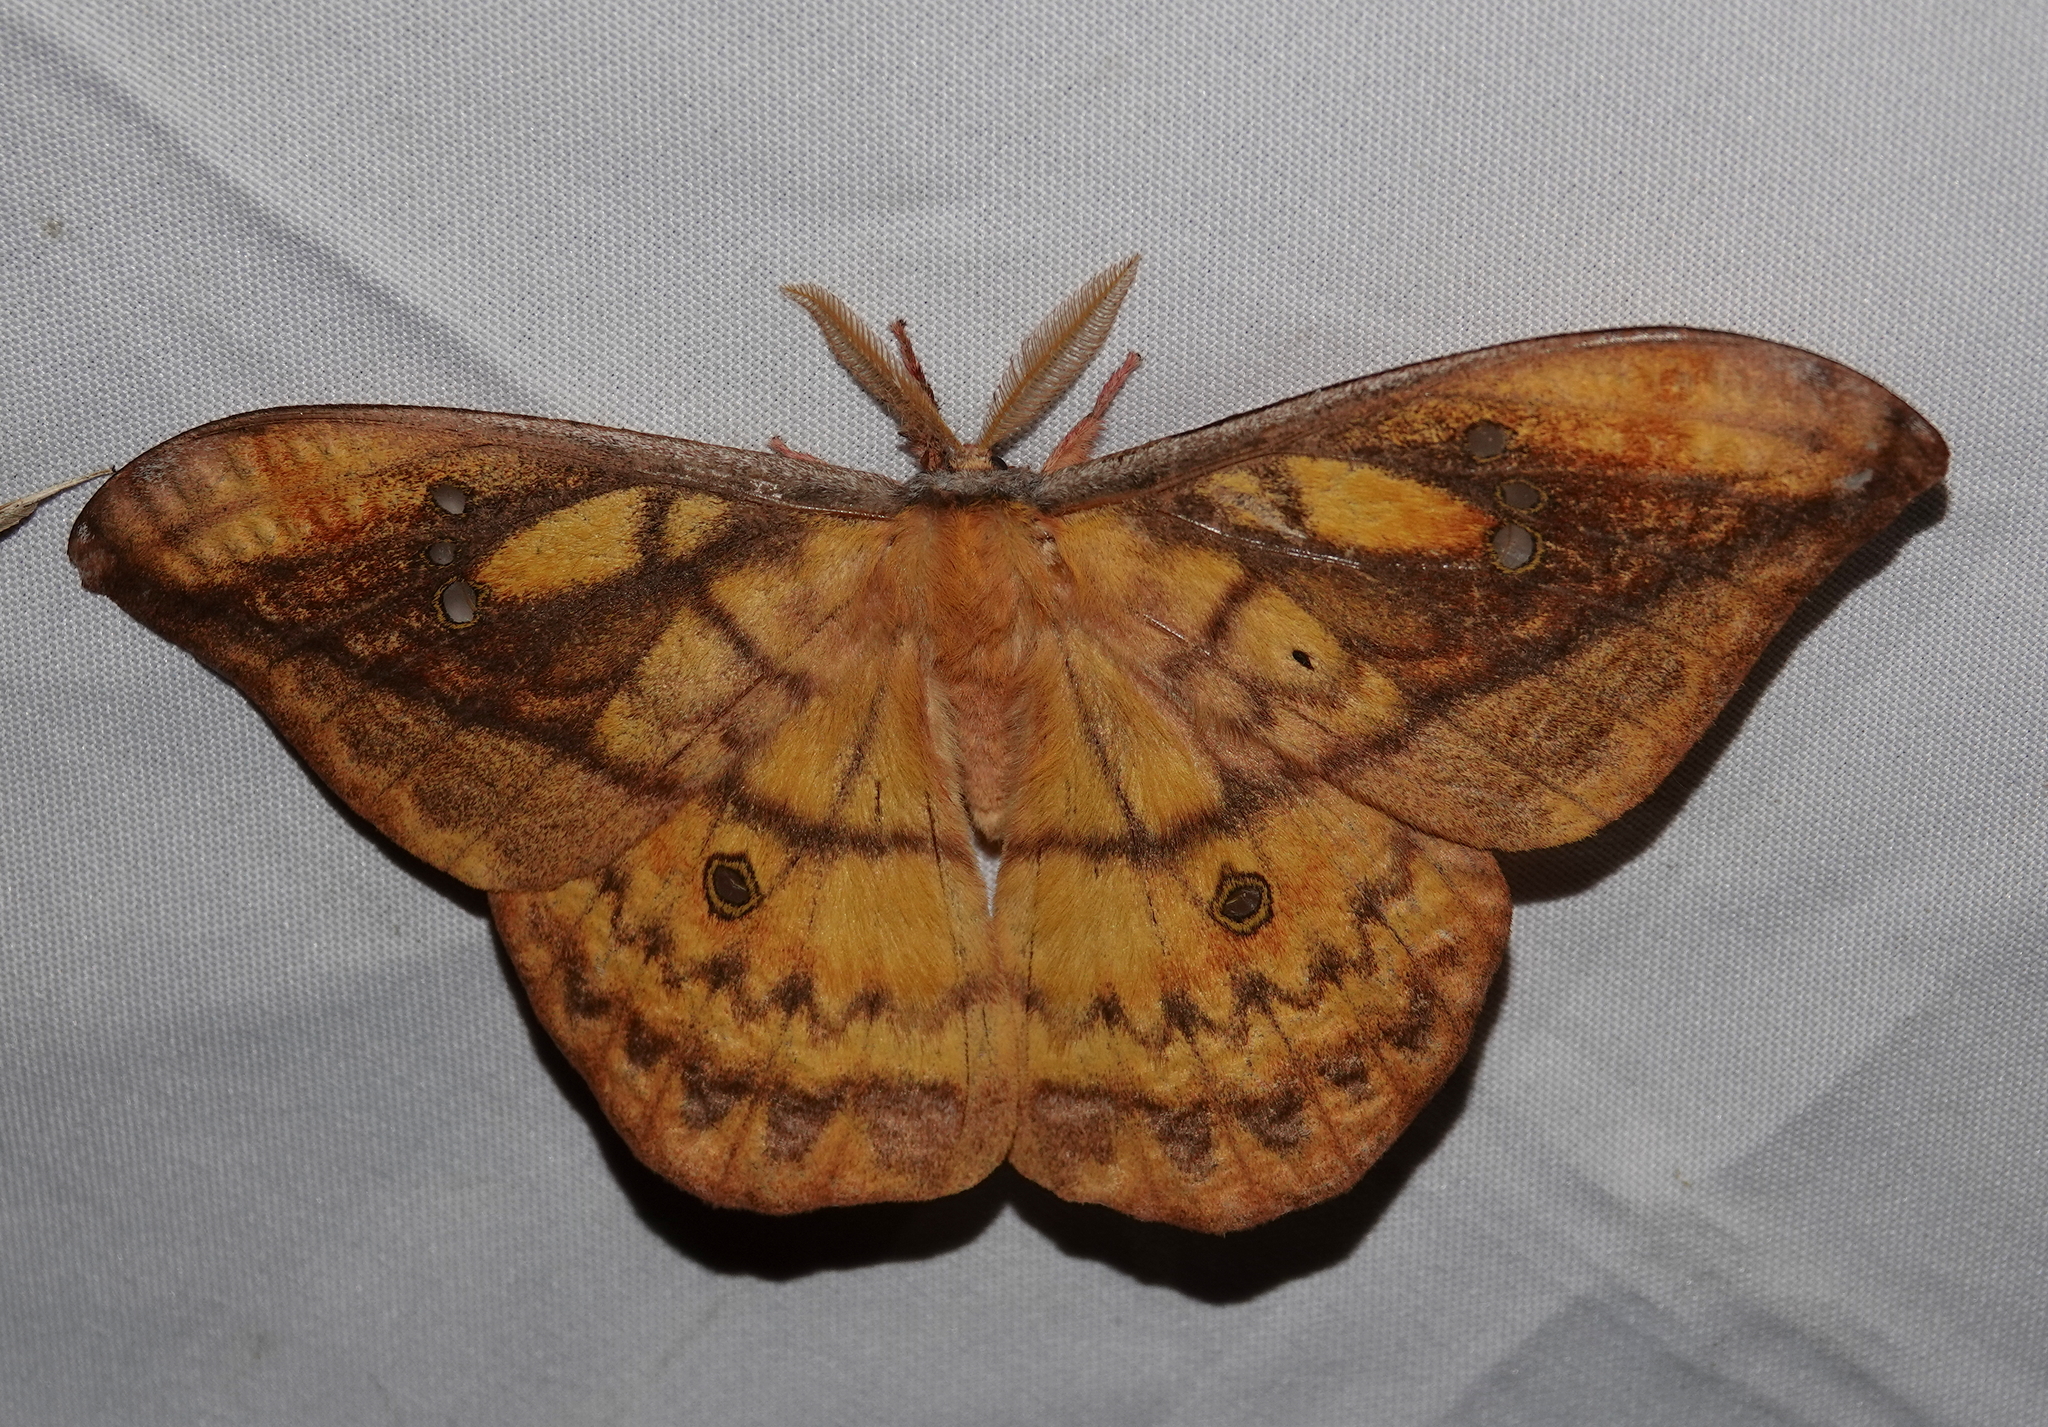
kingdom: Animalia
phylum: Arthropoda
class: Insecta
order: Lepidoptera
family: Saturniidae
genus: Copaxa
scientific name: Copaxa winbrechliniani
